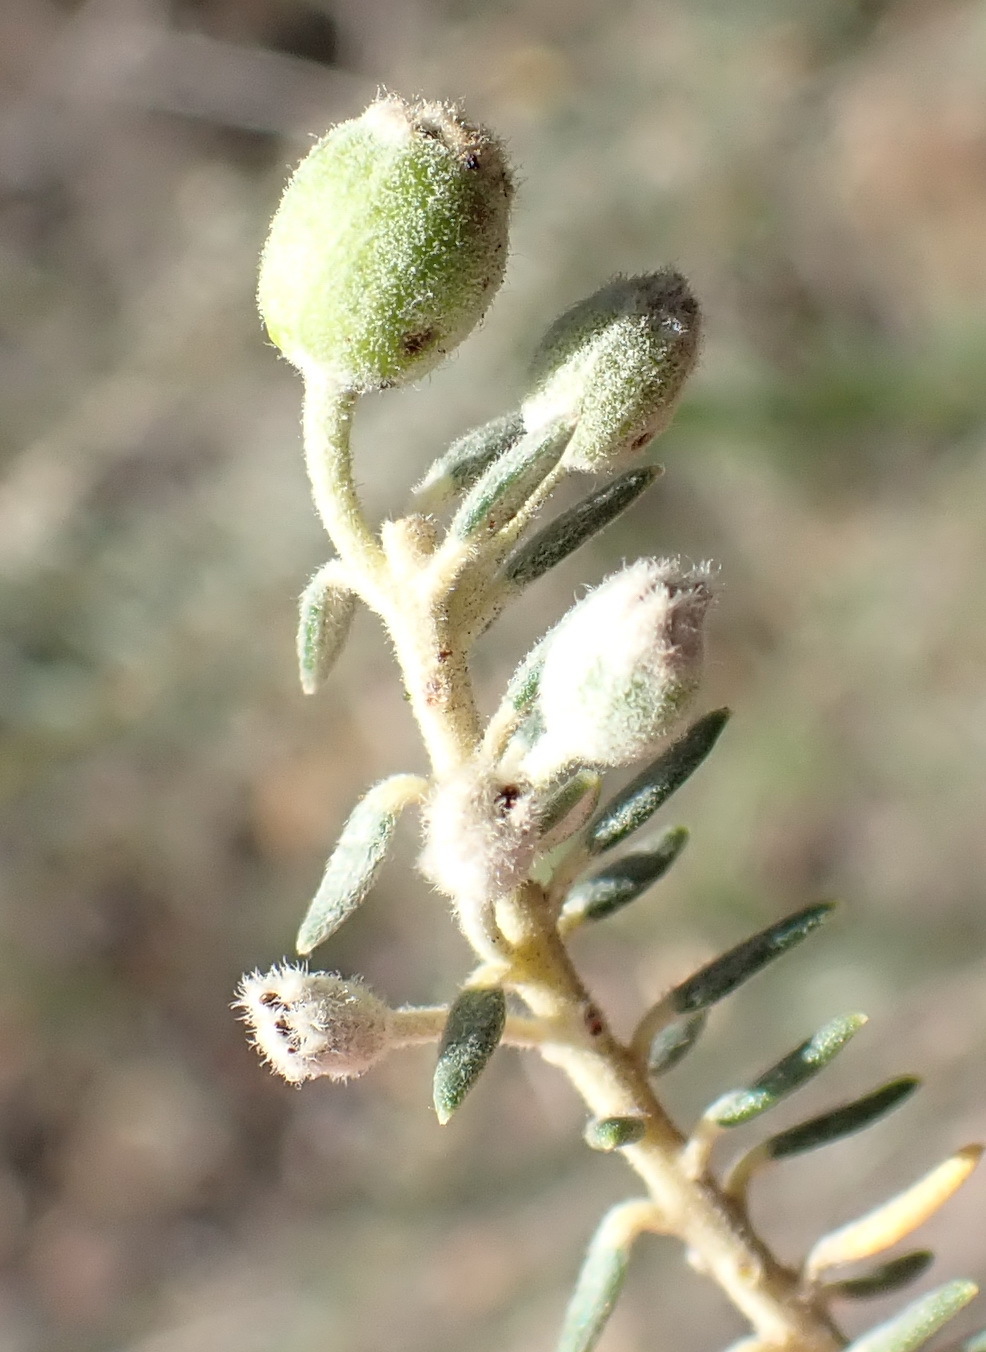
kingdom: Plantae
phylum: Tracheophyta
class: Magnoliopsida
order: Rosales
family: Rhamnaceae
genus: Phylica
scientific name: Phylica pinea
